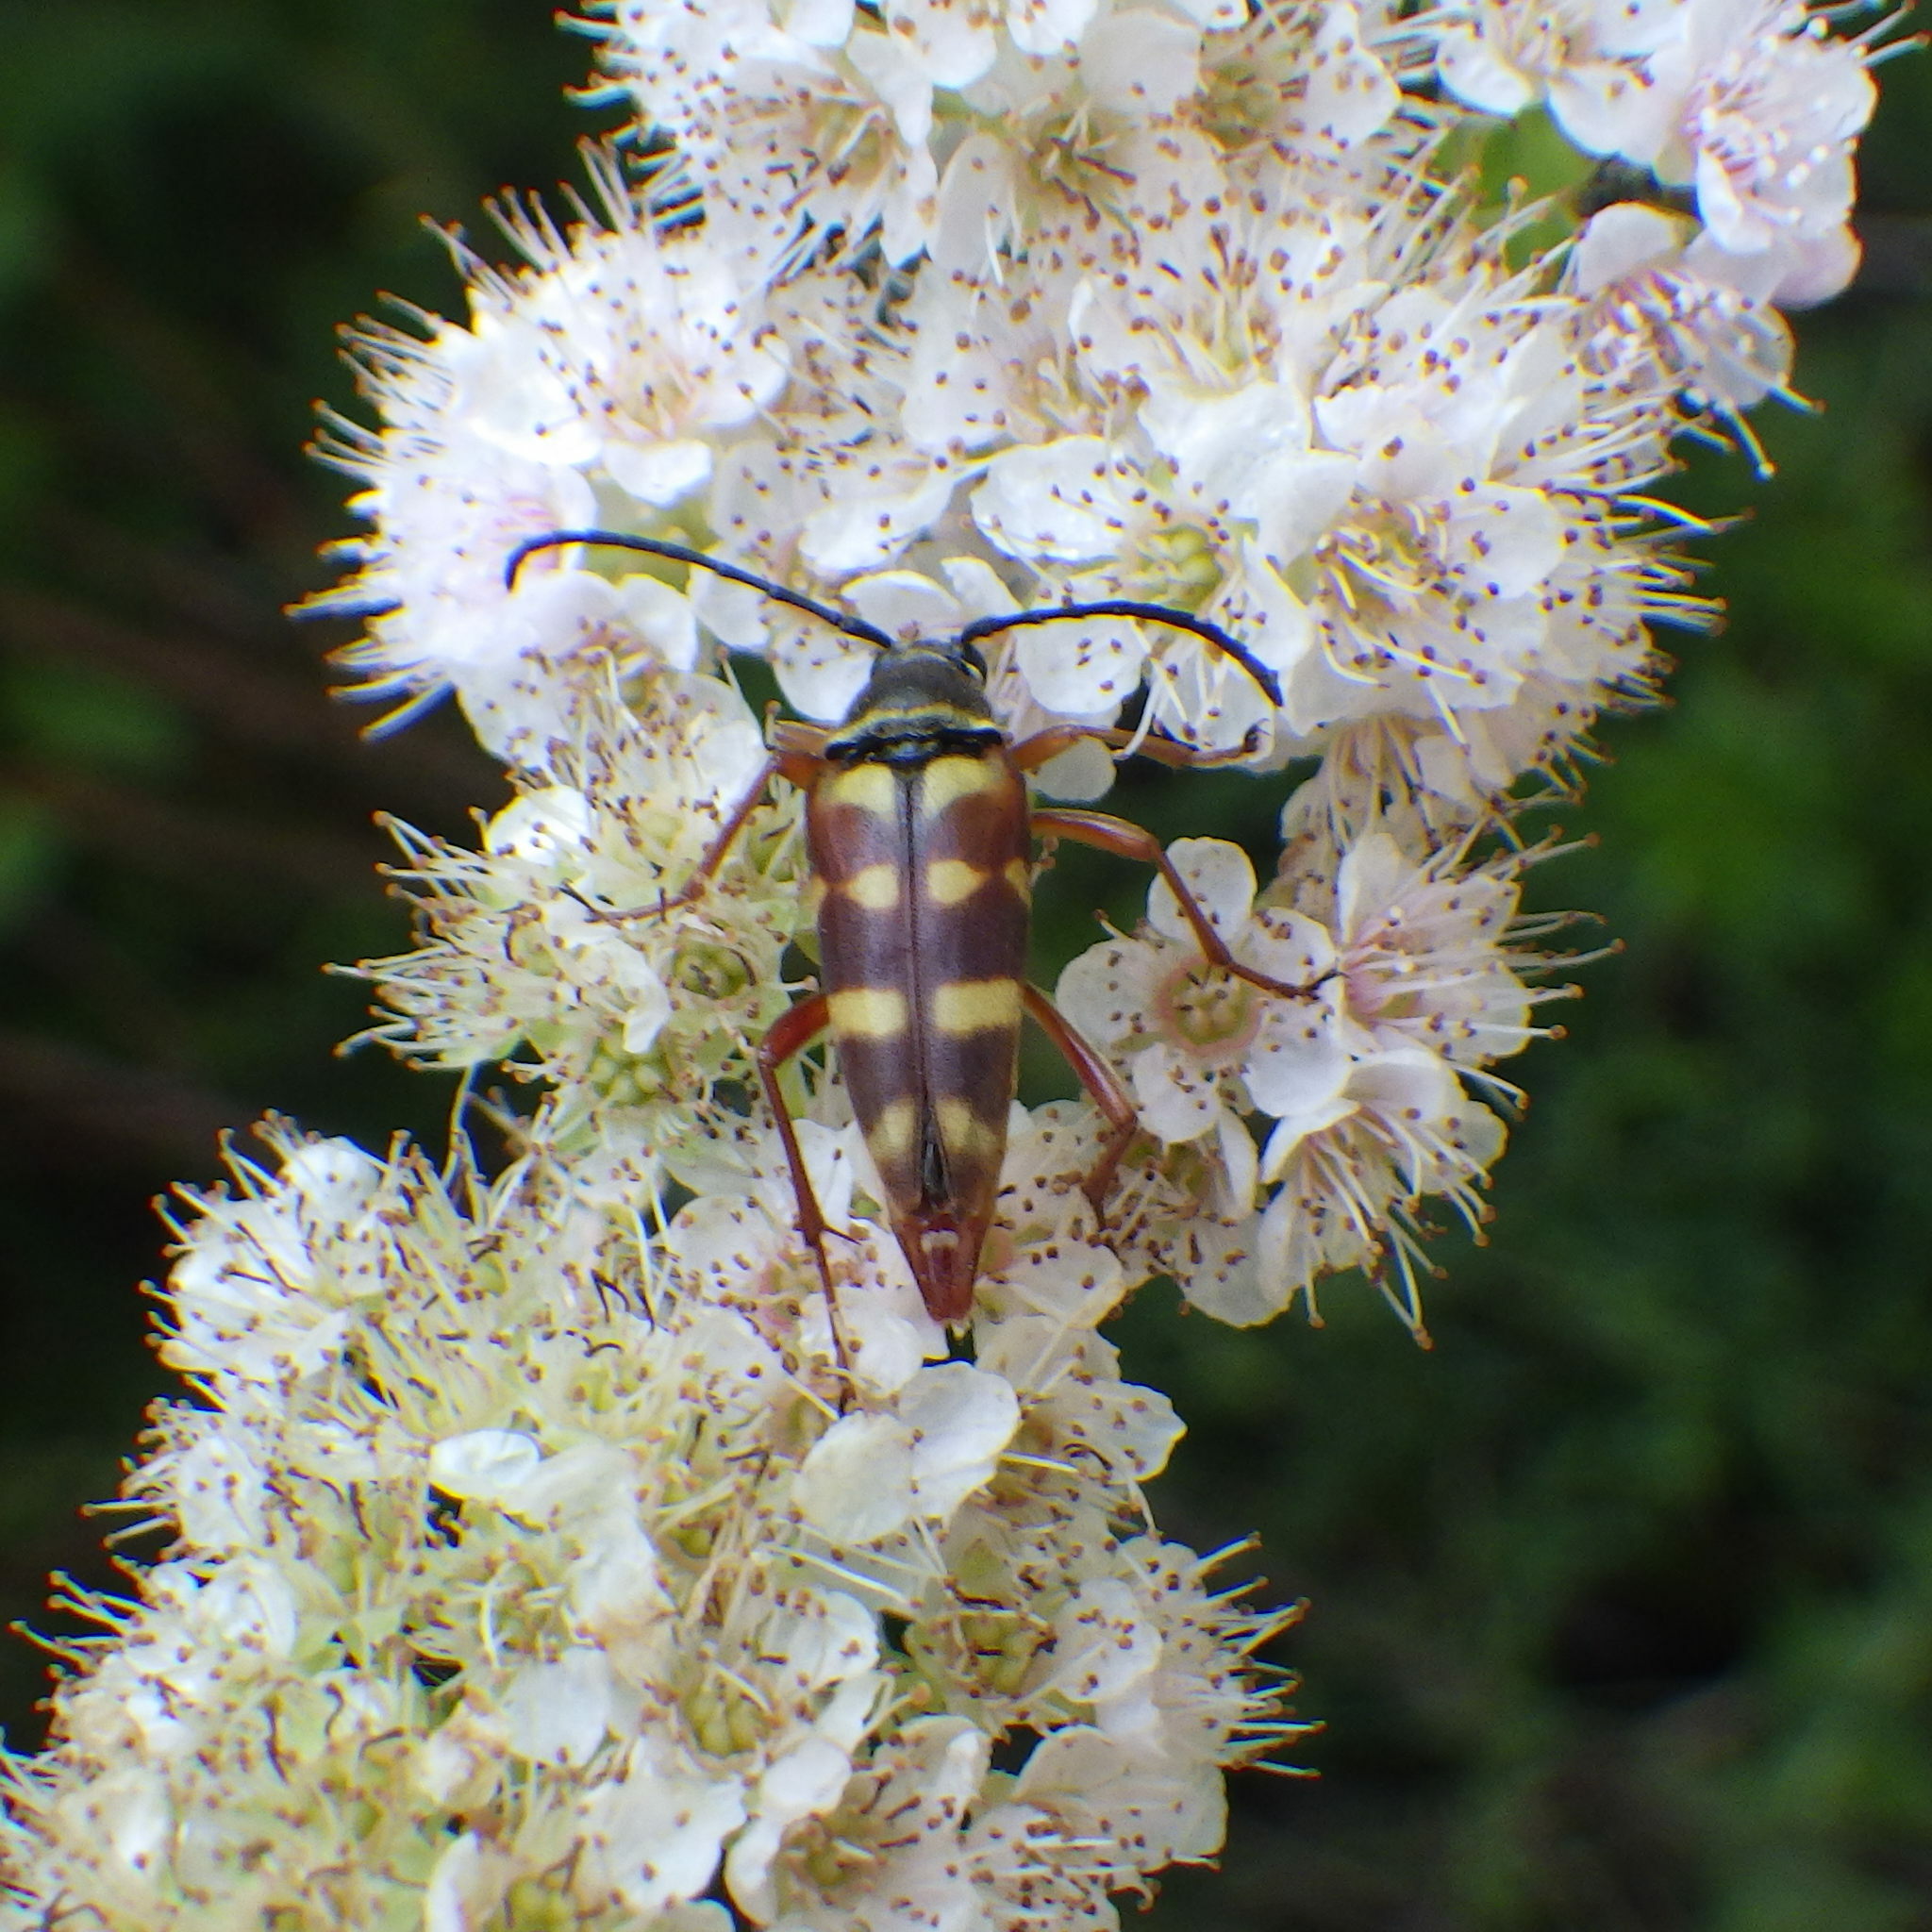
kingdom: Animalia
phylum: Arthropoda
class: Insecta
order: Coleoptera
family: Cerambycidae
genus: Typocerus
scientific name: Typocerus velutinus
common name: Banded longhorn beetle
